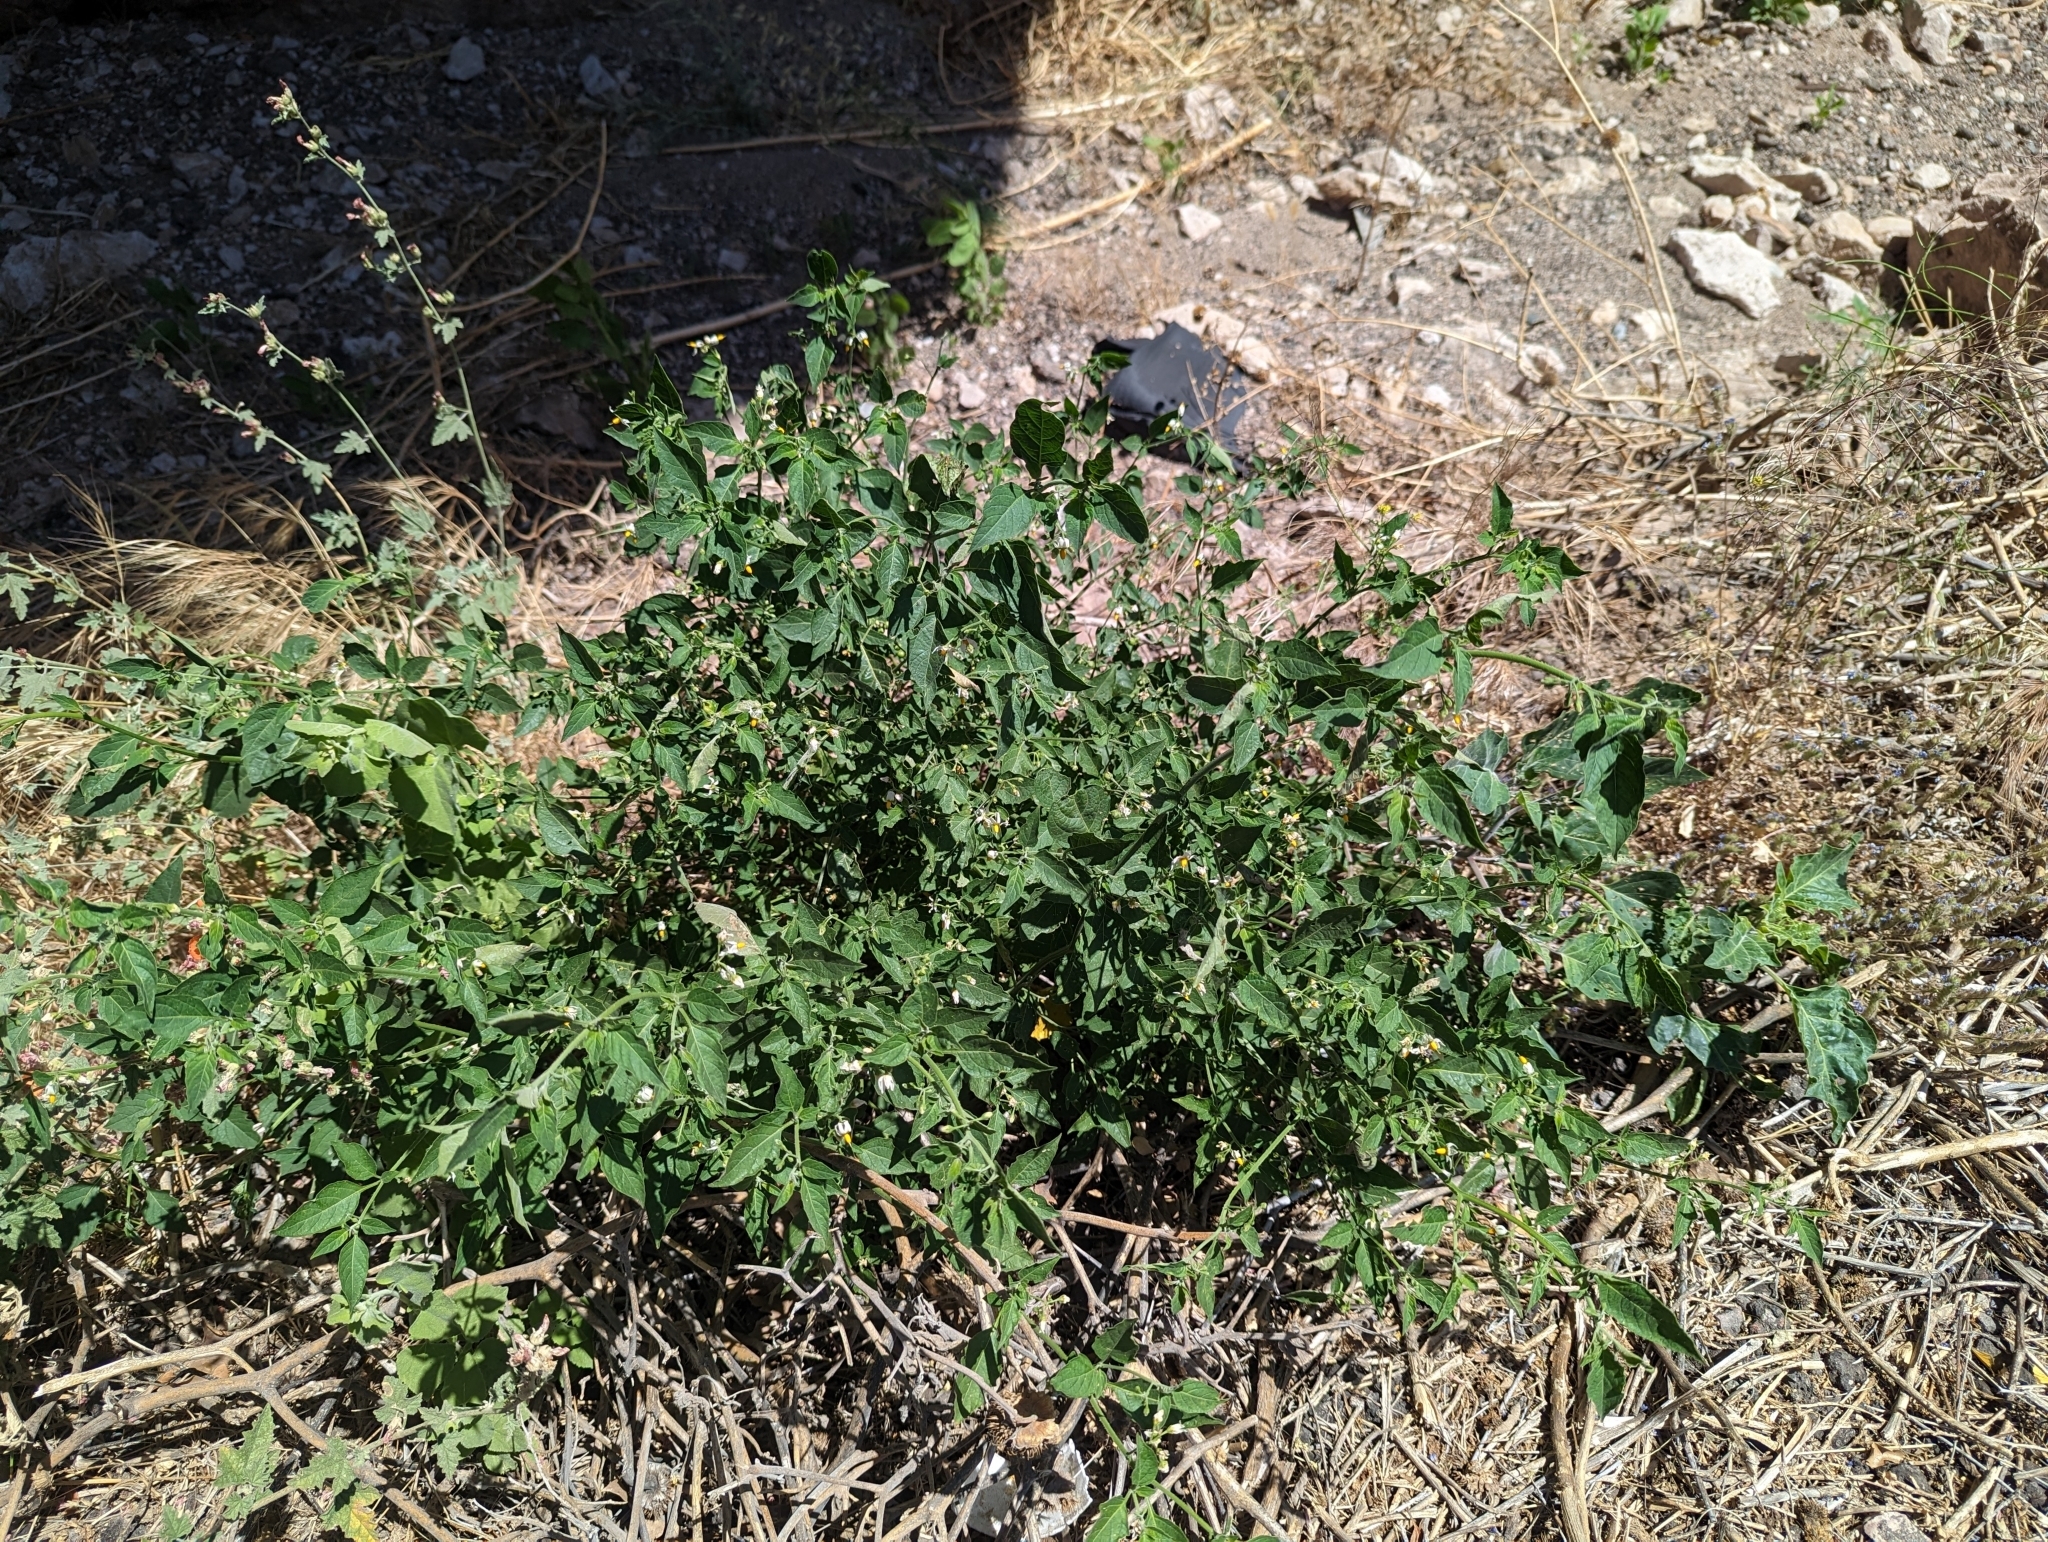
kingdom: Plantae
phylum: Tracheophyta
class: Magnoliopsida
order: Solanales
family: Solanaceae
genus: Solanum
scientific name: Solanum douglasii
